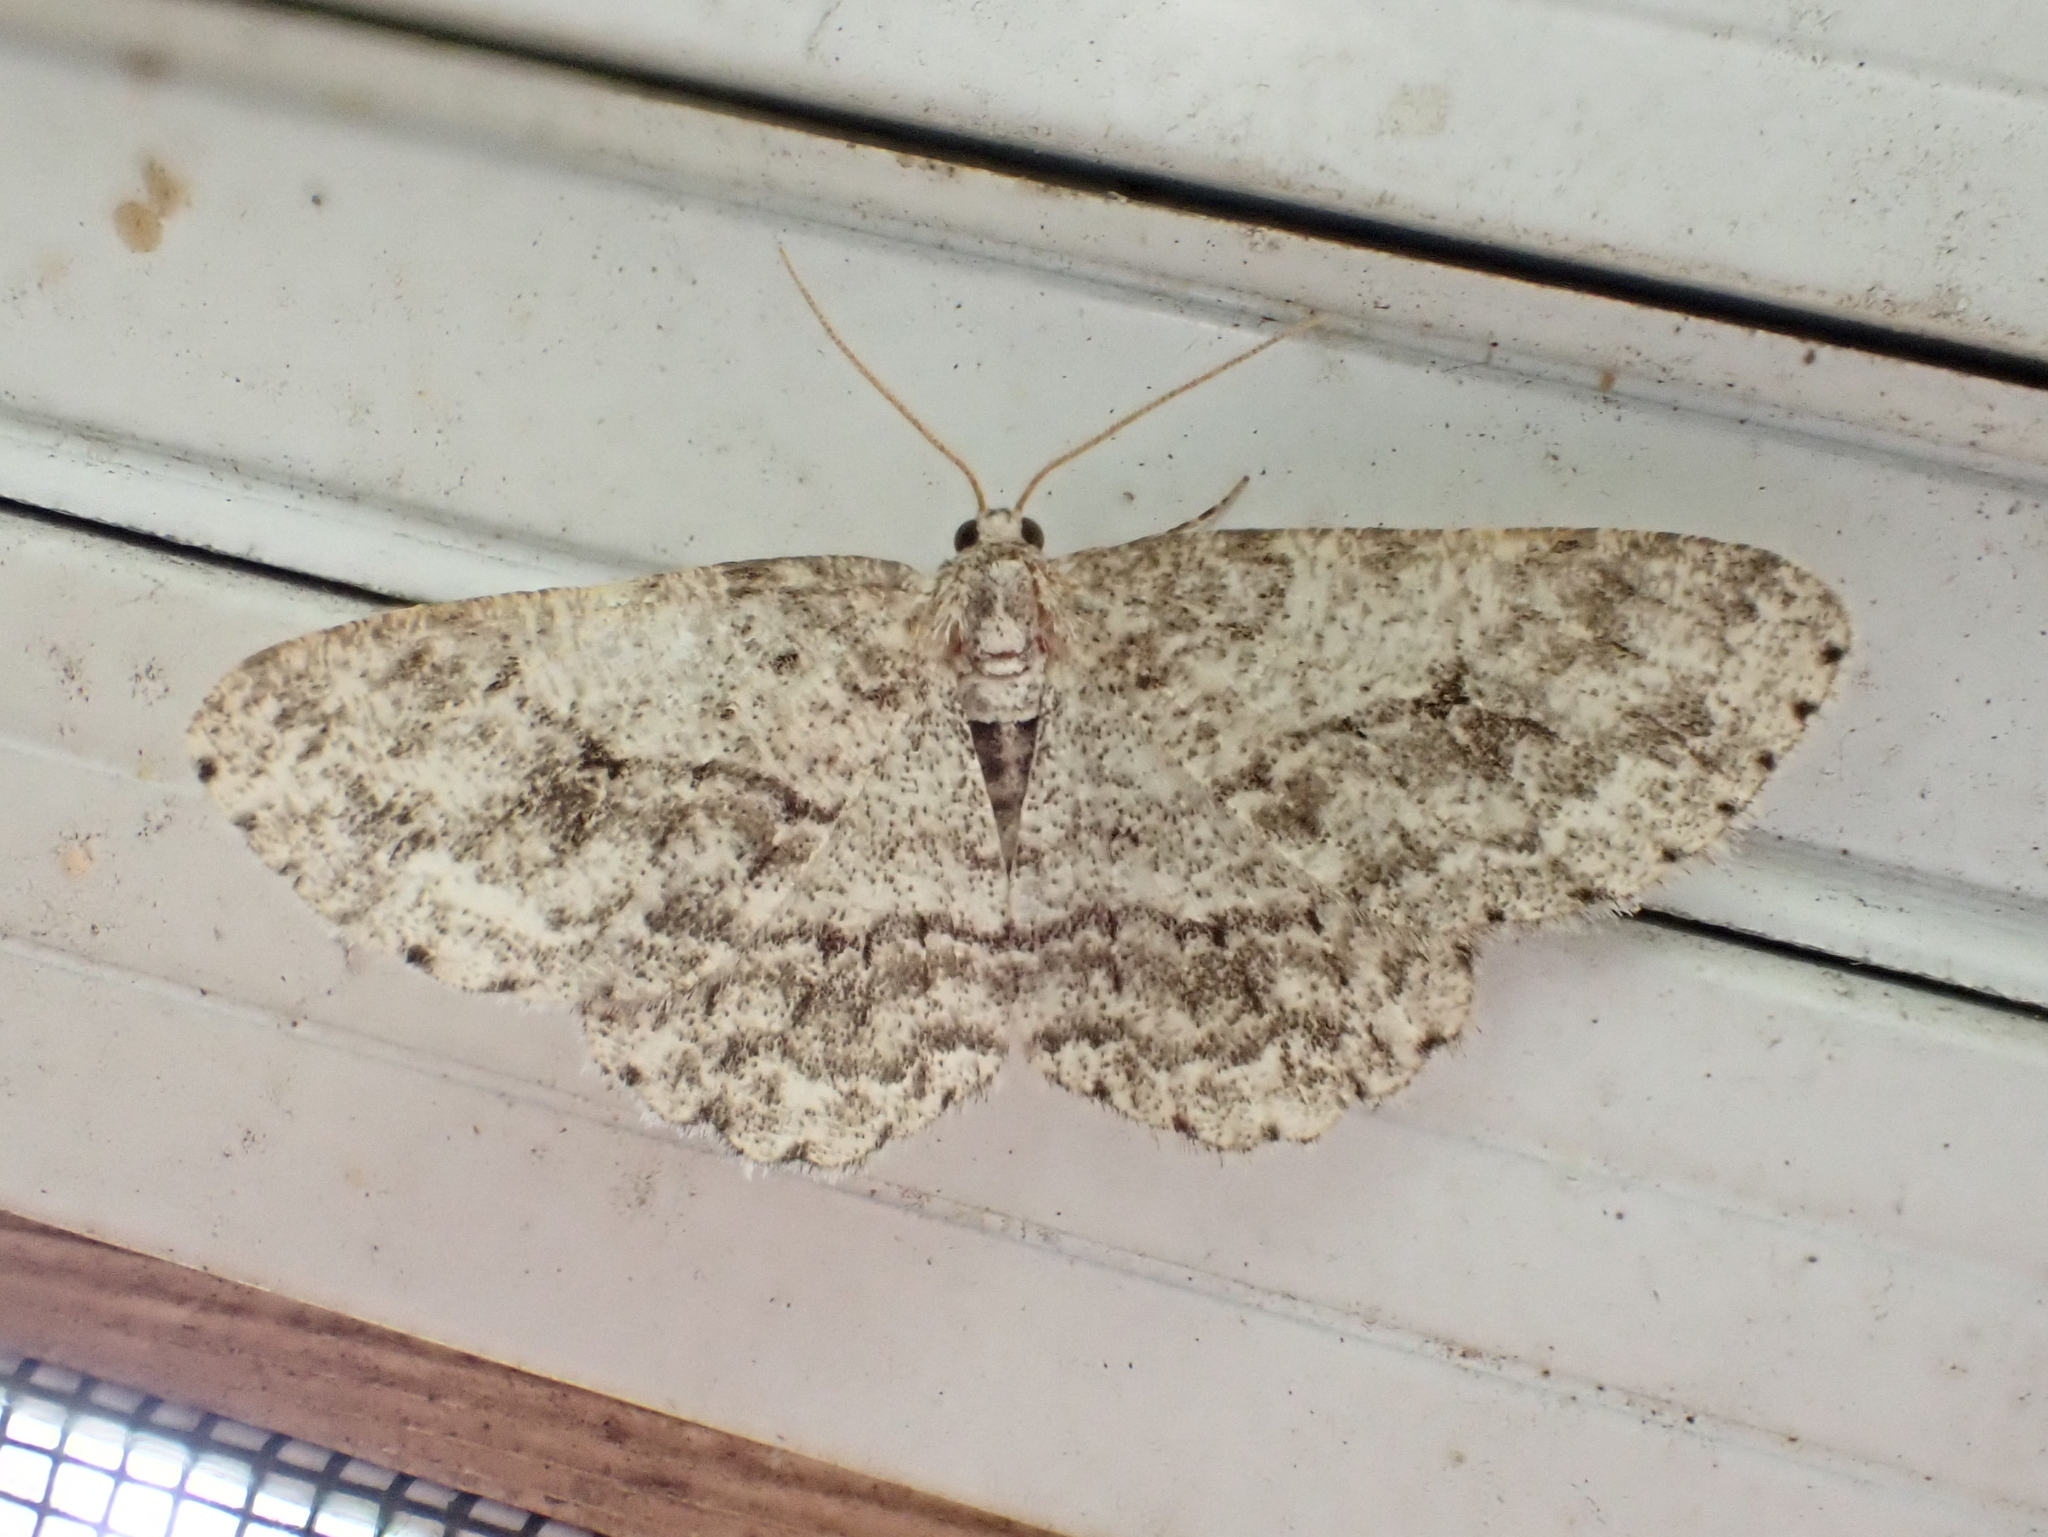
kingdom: Animalia
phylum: Arthropoda
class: Insecta
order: Lepidoptera
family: Geometridae
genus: Ectropis
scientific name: Ectropis crepuscularia
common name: Engrailed
